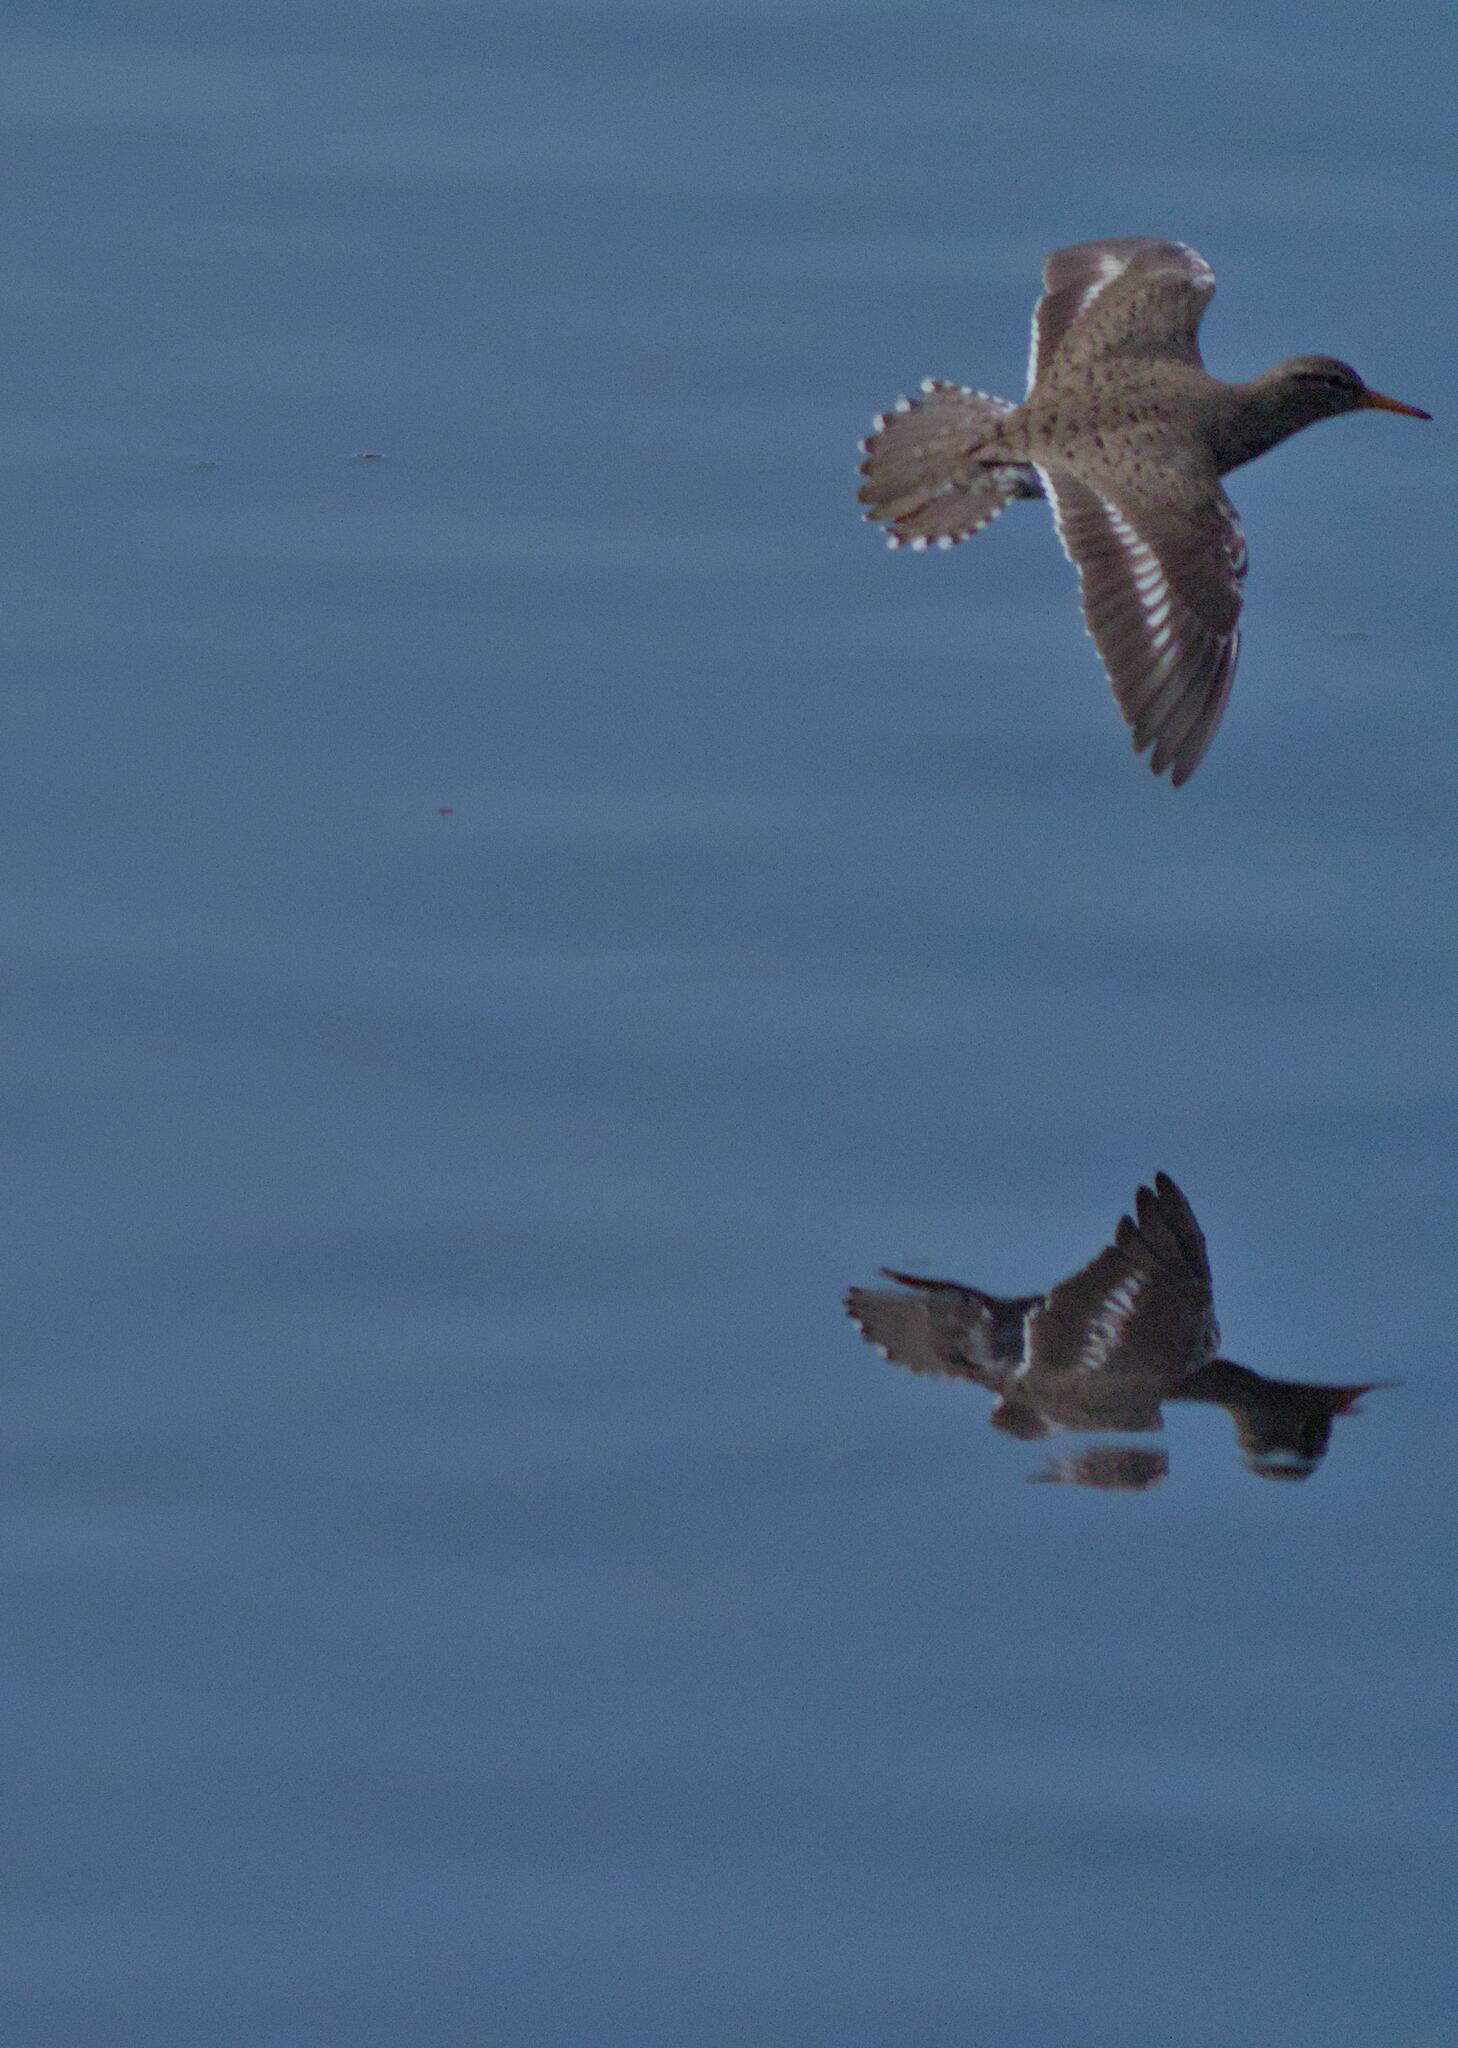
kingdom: Animalia
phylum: Chordata
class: Aves
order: Charadriiformes
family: Scolopacidae
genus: Actitis
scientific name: Actitis macularius
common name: Spotted sandpiper
